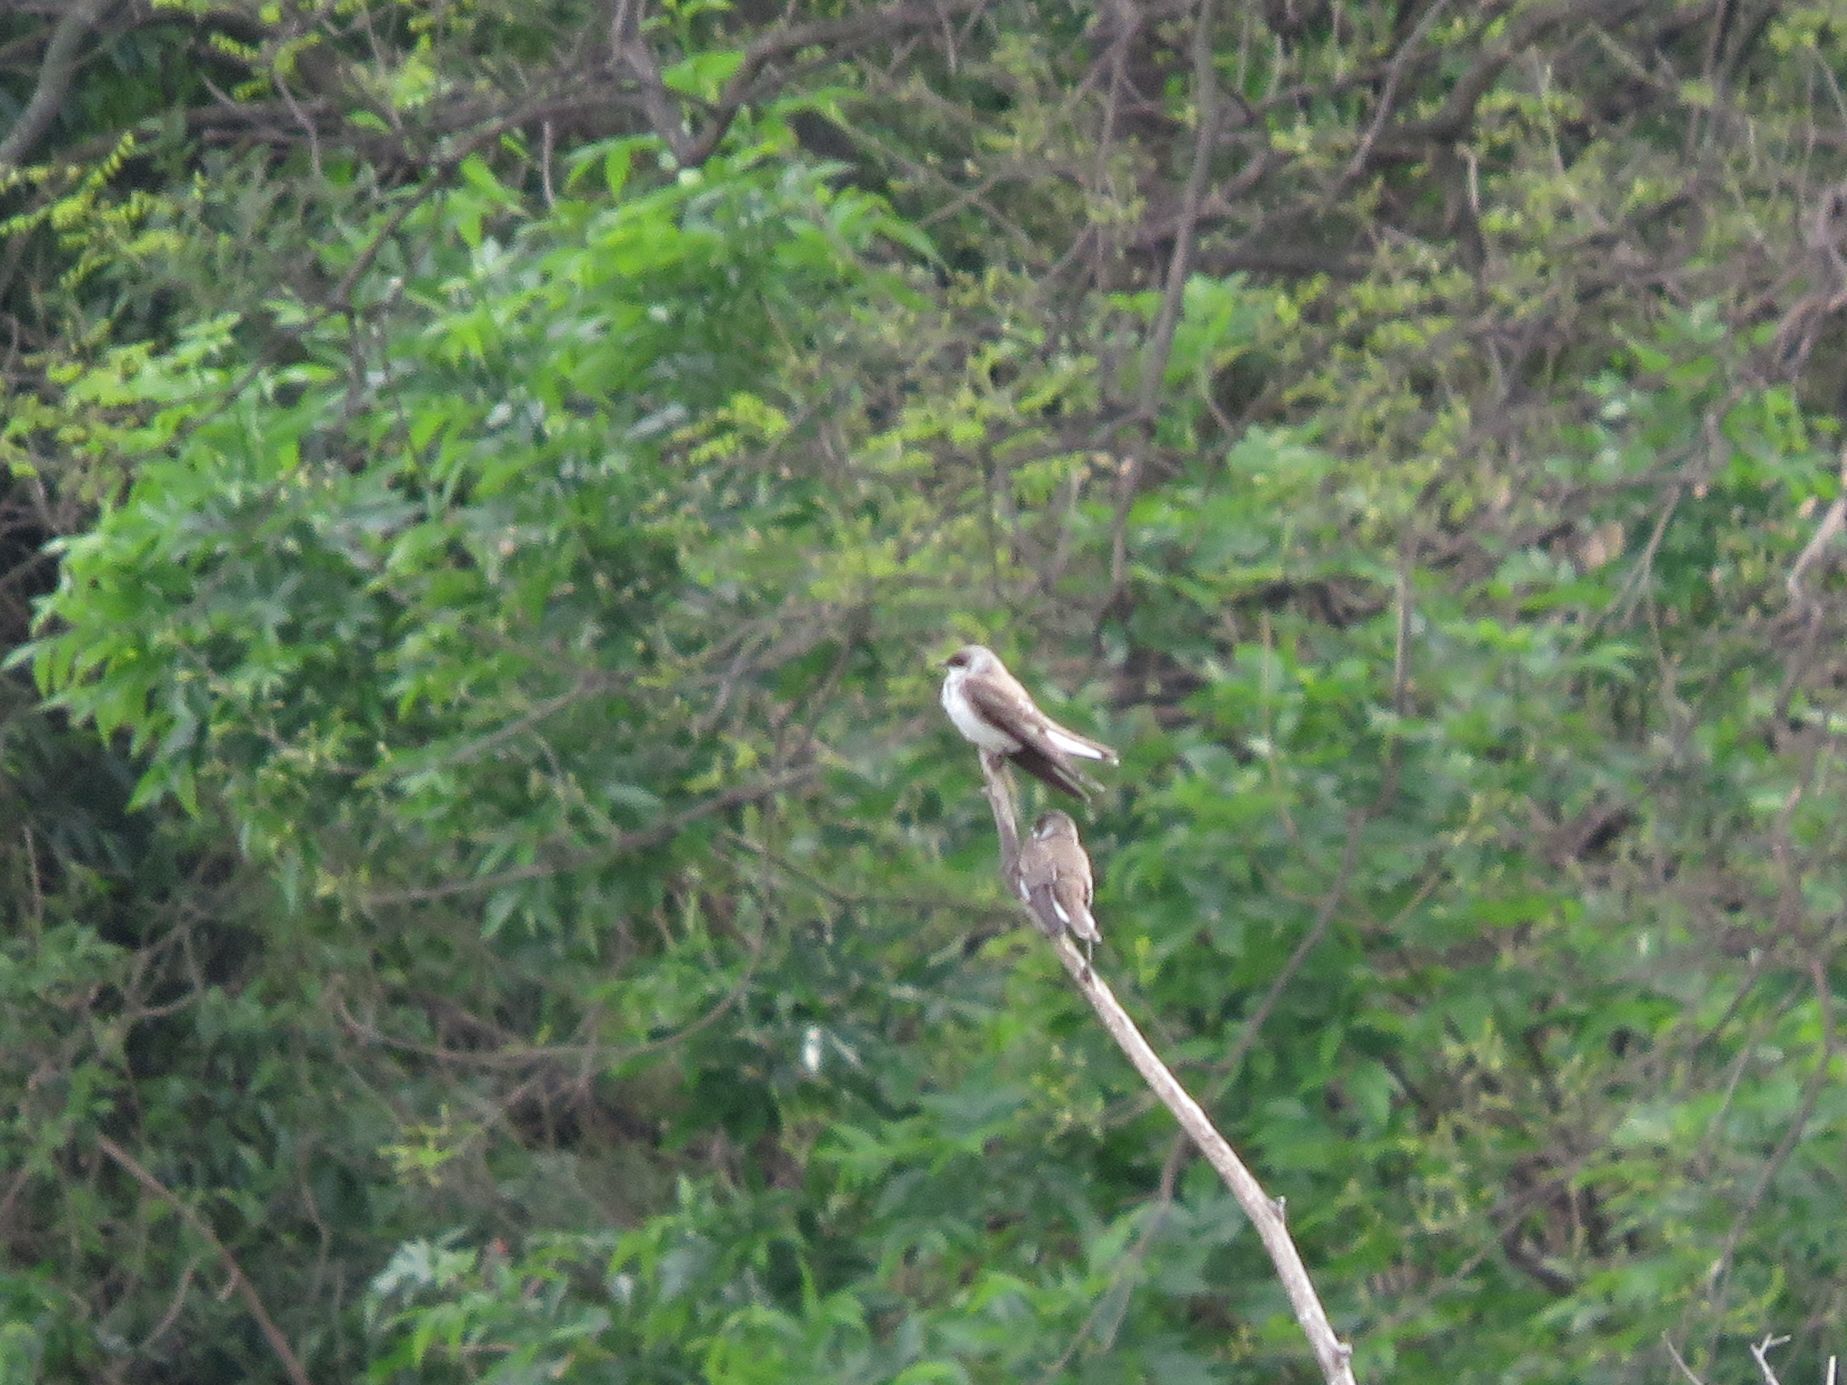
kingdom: Animalia
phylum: Chordata
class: Aves
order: Passeriformes
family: Hirundinidae
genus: Progne
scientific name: Progne tapera
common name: Brown-chested martin
